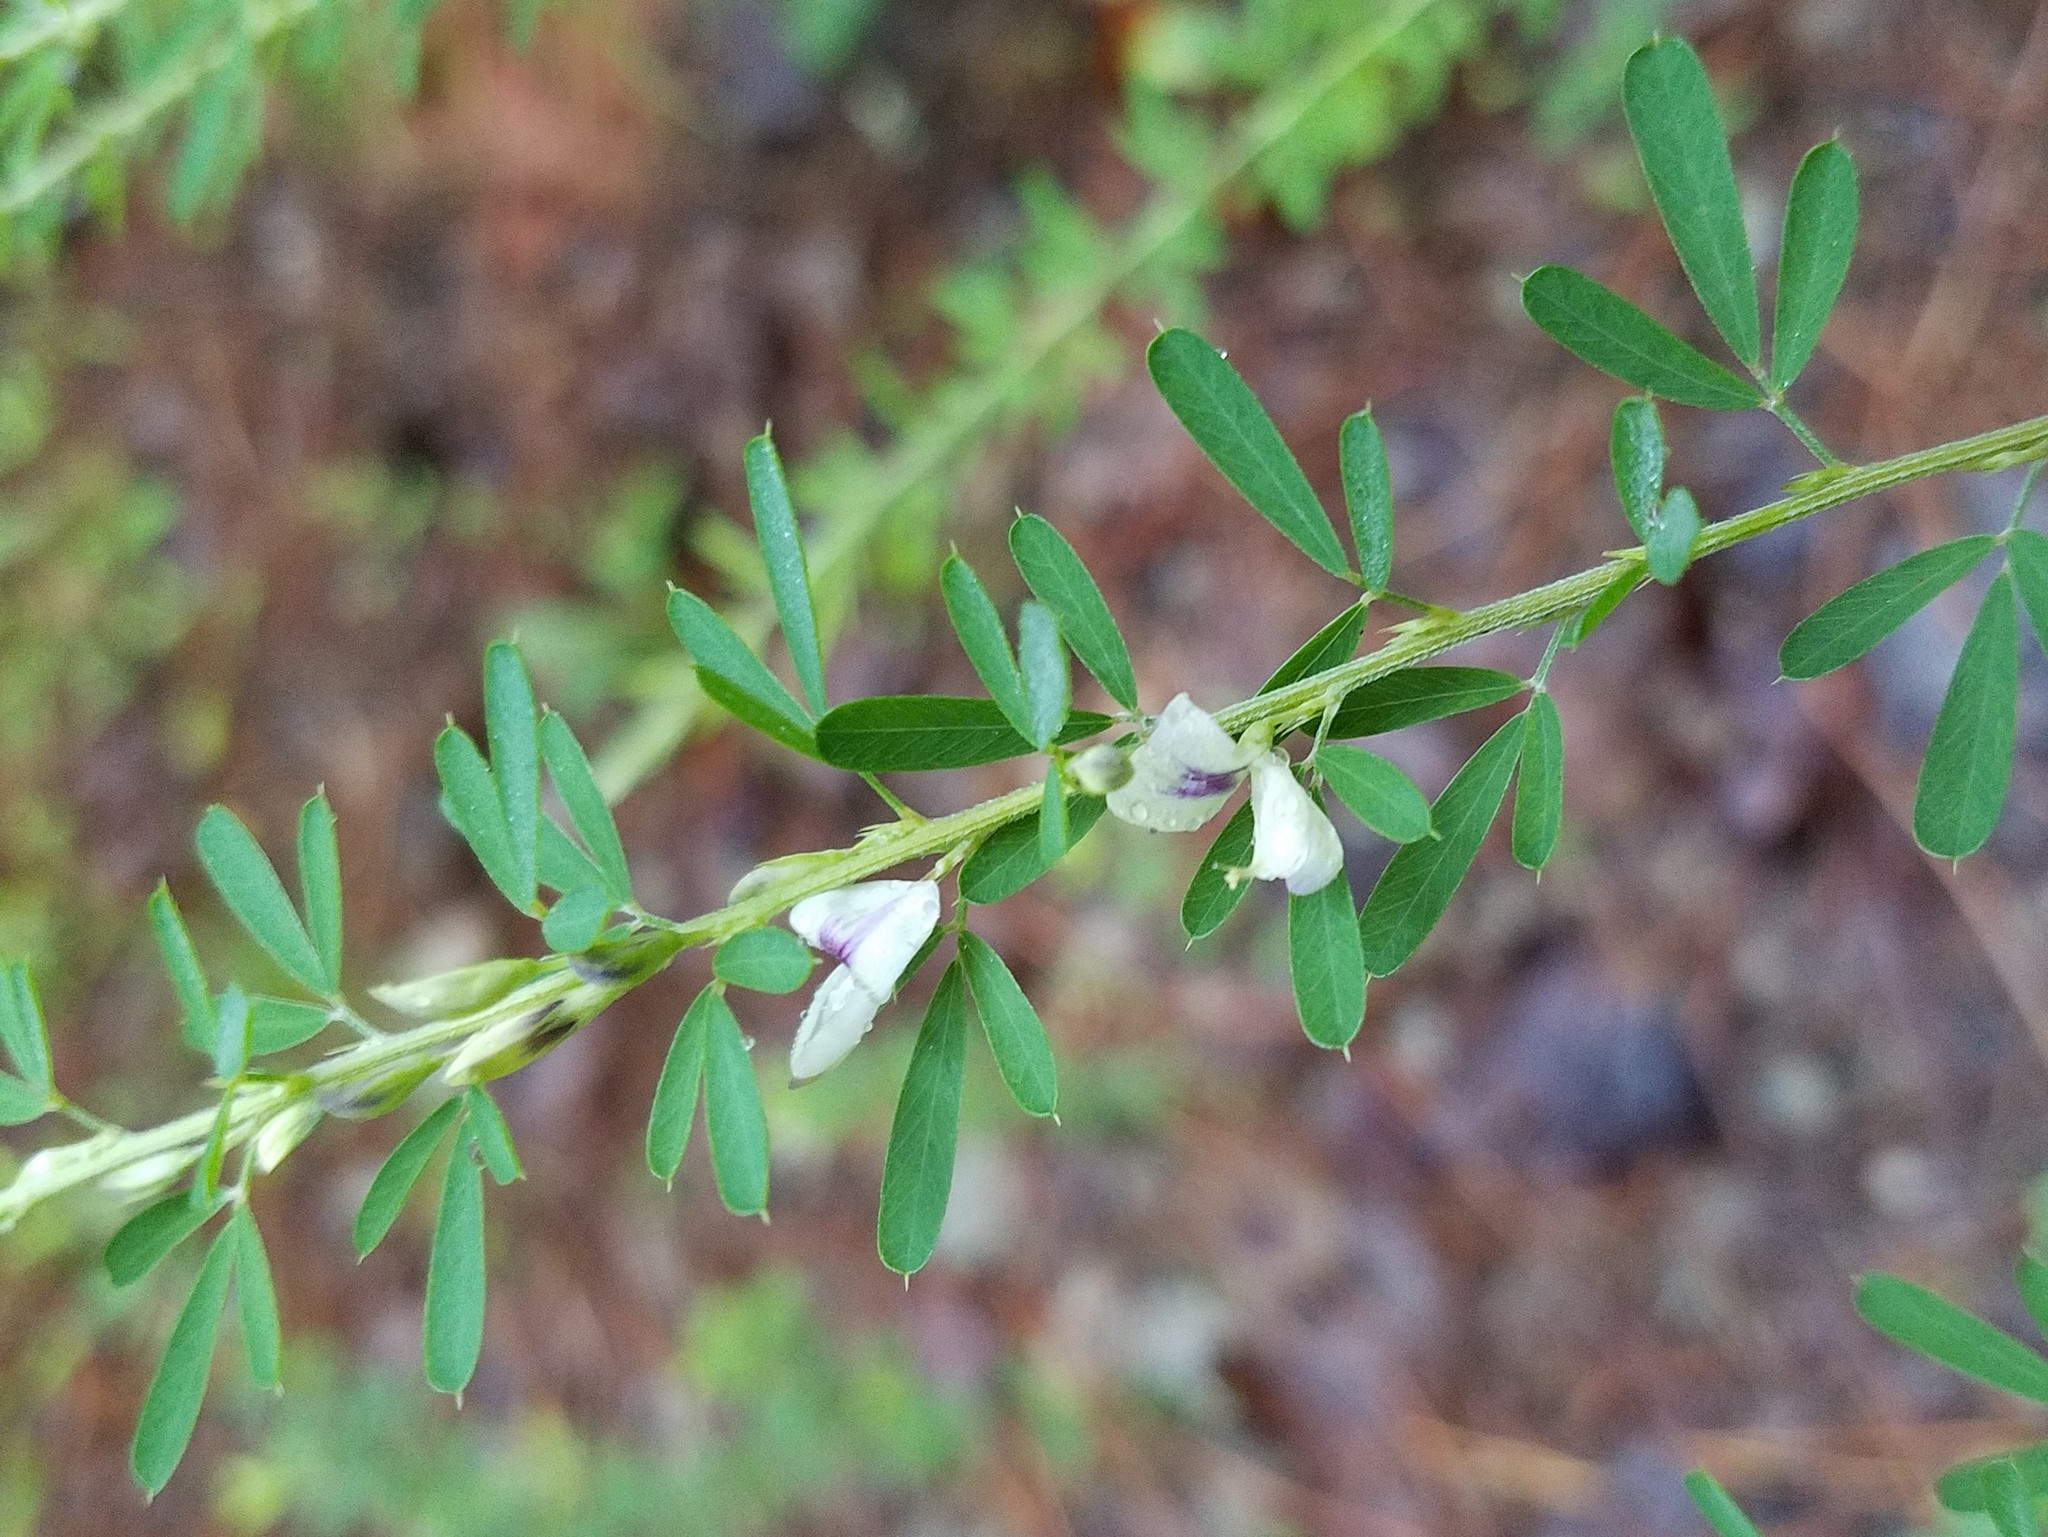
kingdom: Plantae
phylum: Tracheophyta
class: Magnoliopsida
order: Fabales
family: Fabaceae
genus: Lespedeza
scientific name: Lespedeza cuneata
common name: Chinese bush-clover
